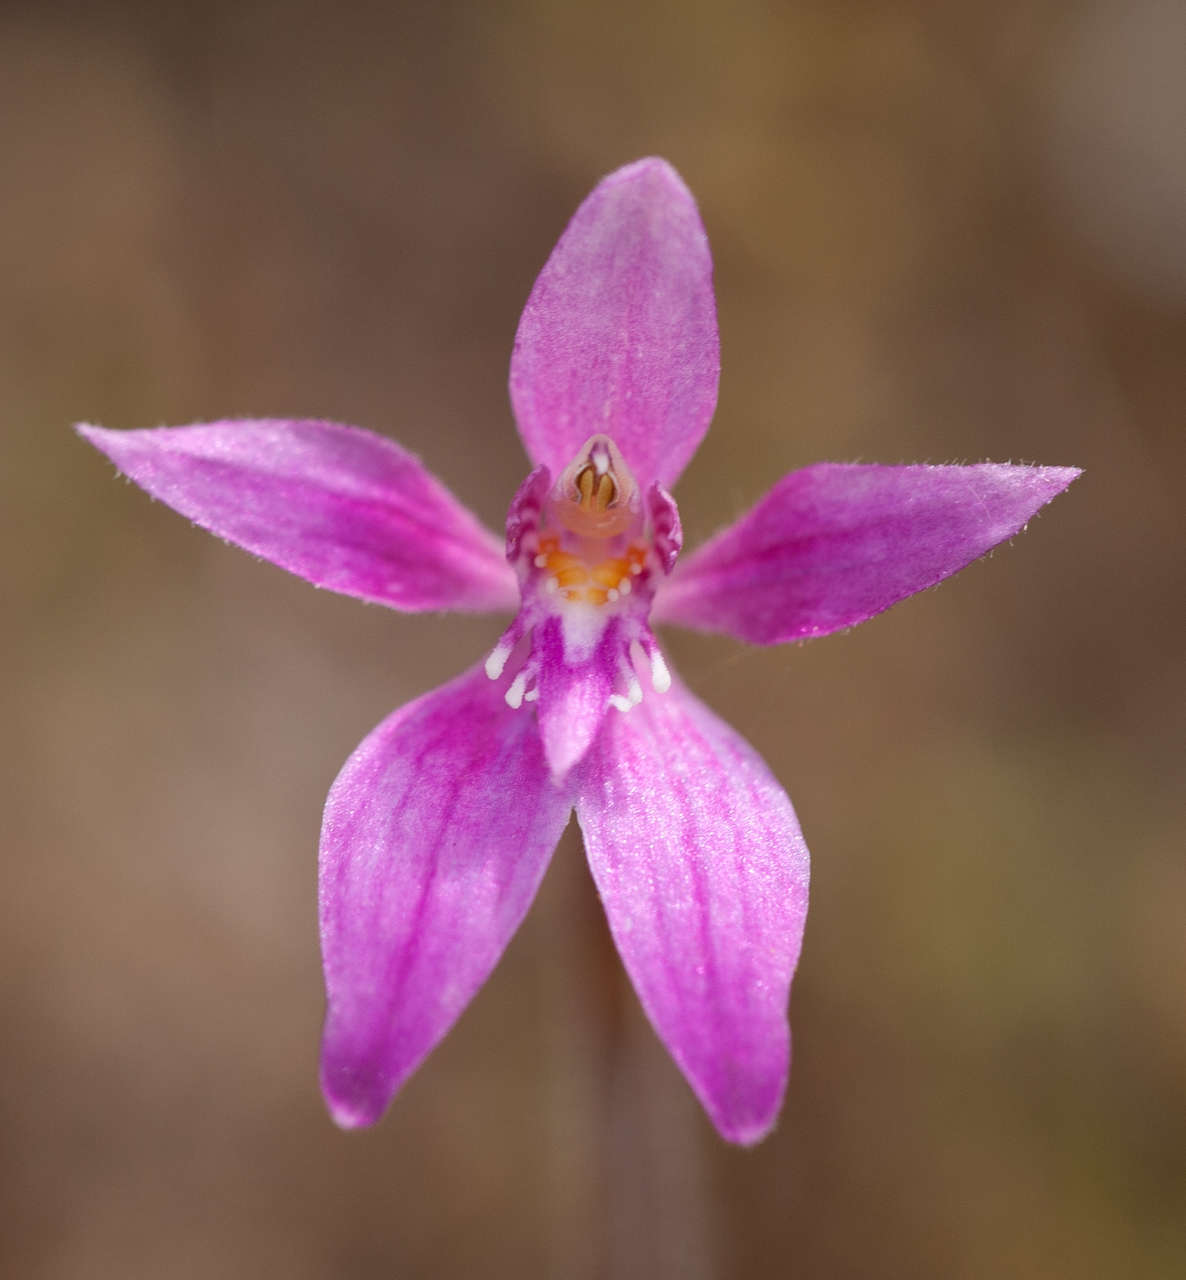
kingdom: Plantae
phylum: Tracheophyta
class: Liliopsida
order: Asparagales
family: Orchidaceae
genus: Caladenia
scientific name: Caladenia latifolia
